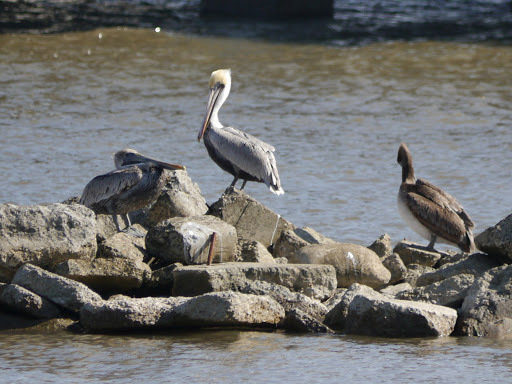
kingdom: Animalia
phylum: Chordata
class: Aves
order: Pelecaniformes
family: Pelecanidae
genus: Pelecanus
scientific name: Pelecanus occidentalis
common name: Brown pelican
